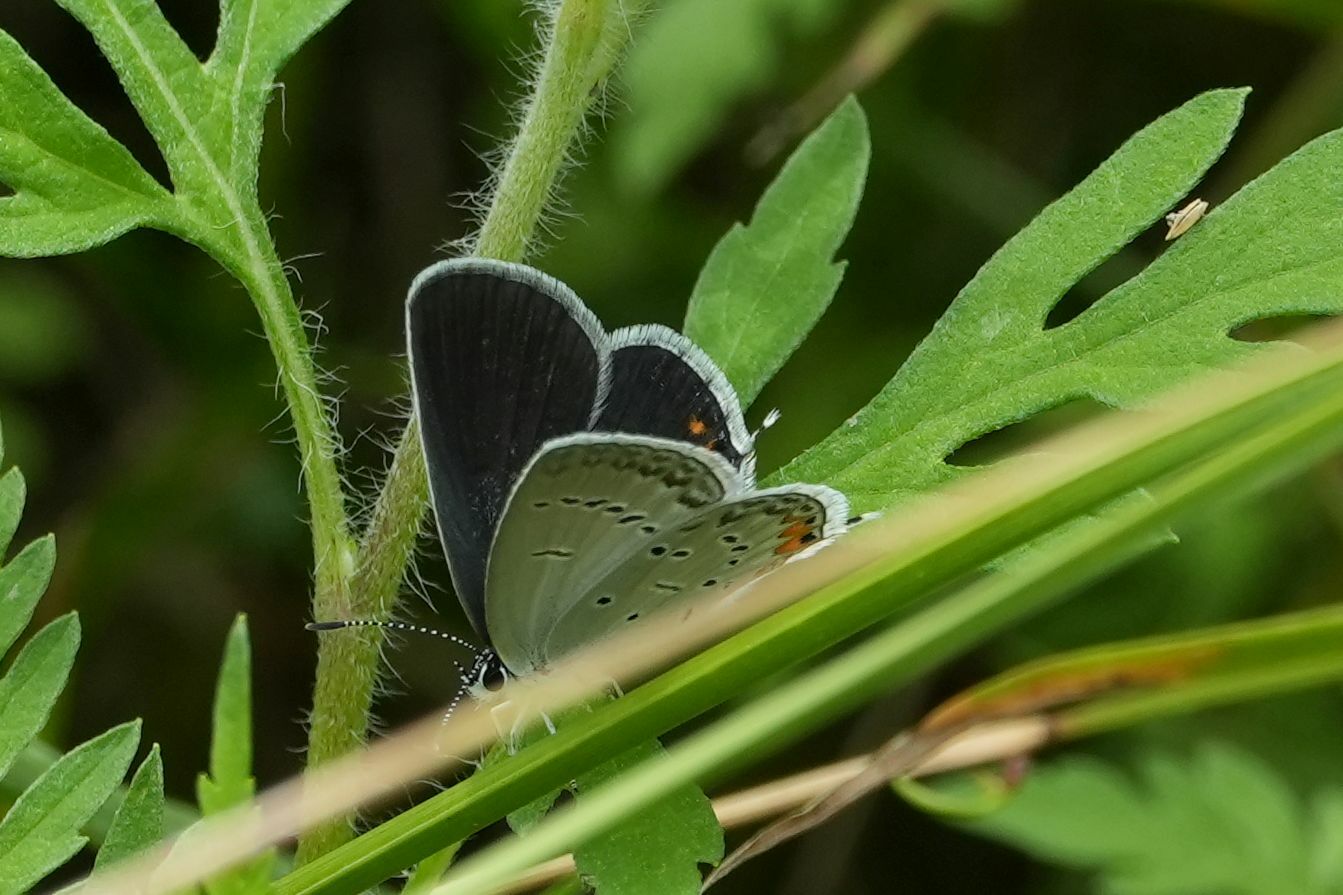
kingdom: Animalia
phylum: Arthropoda
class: Insecta
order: Lepidoptera
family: Lycaenidae
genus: Elkalyce
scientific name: Elkalyce comyntas
